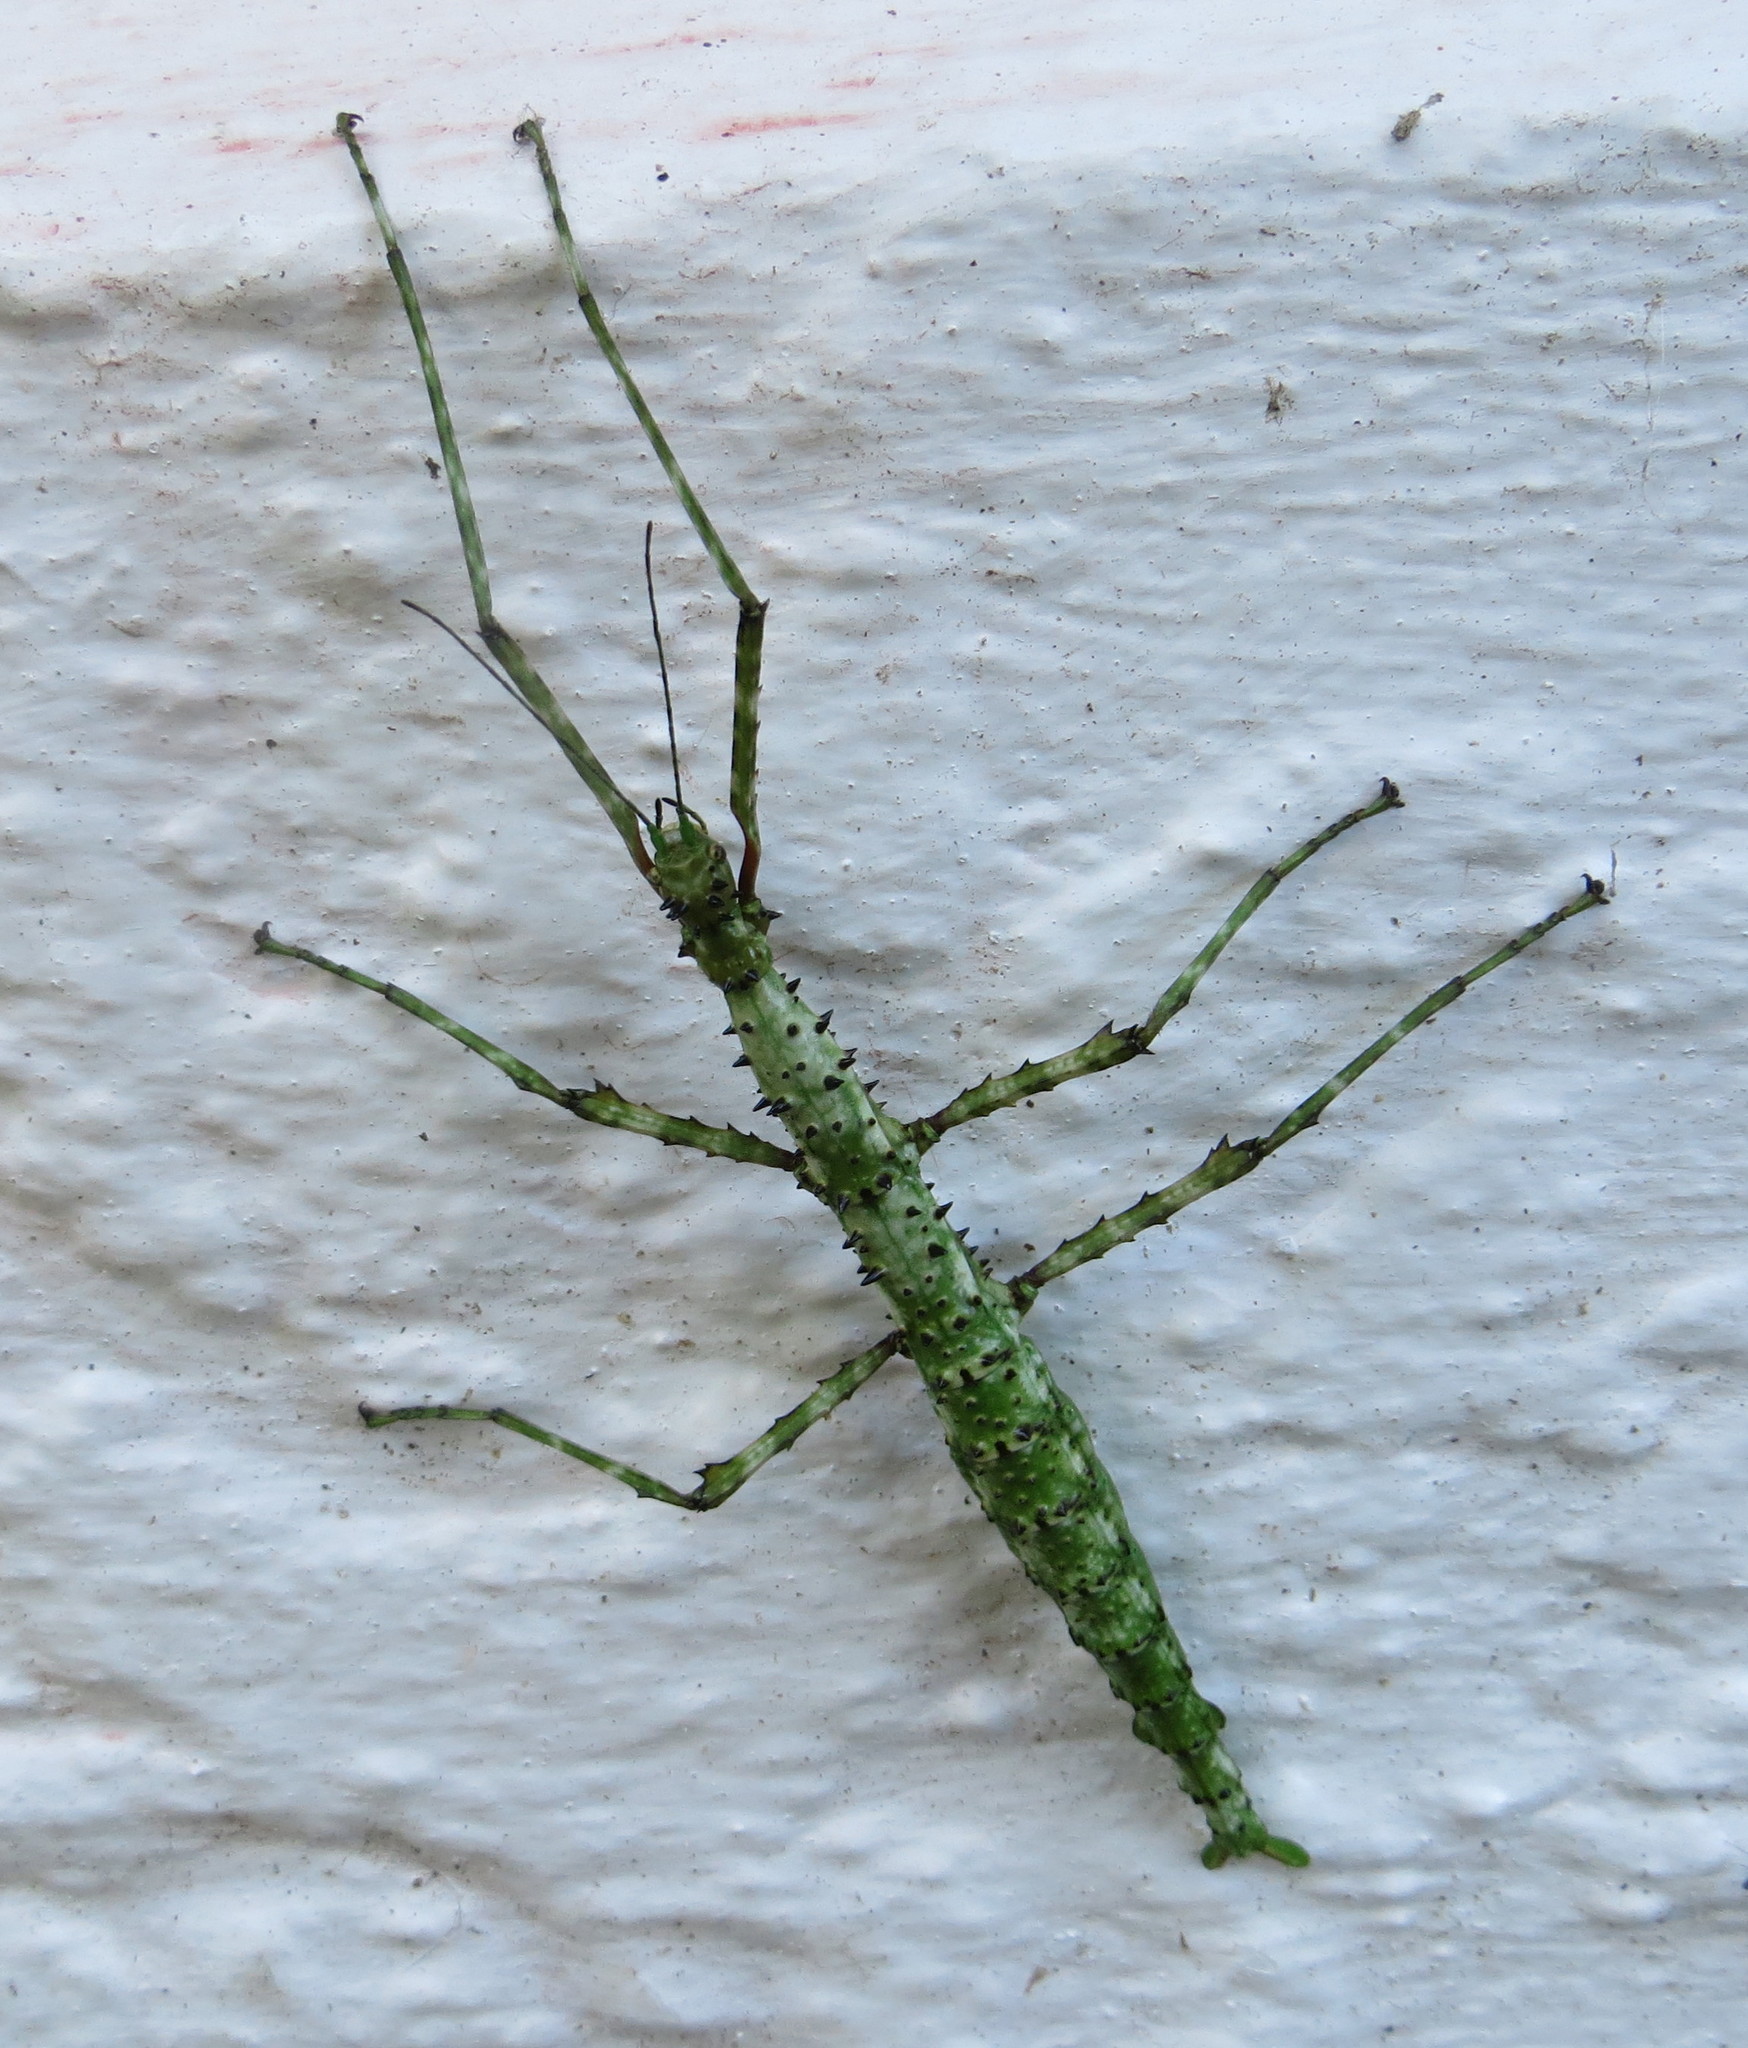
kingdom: Animalia
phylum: Arthropoda
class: Insecta
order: Phasmida
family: Phasmatidae
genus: Acanthoxyla
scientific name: Acanthoxyla prasina
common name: Black-spined stick insect
